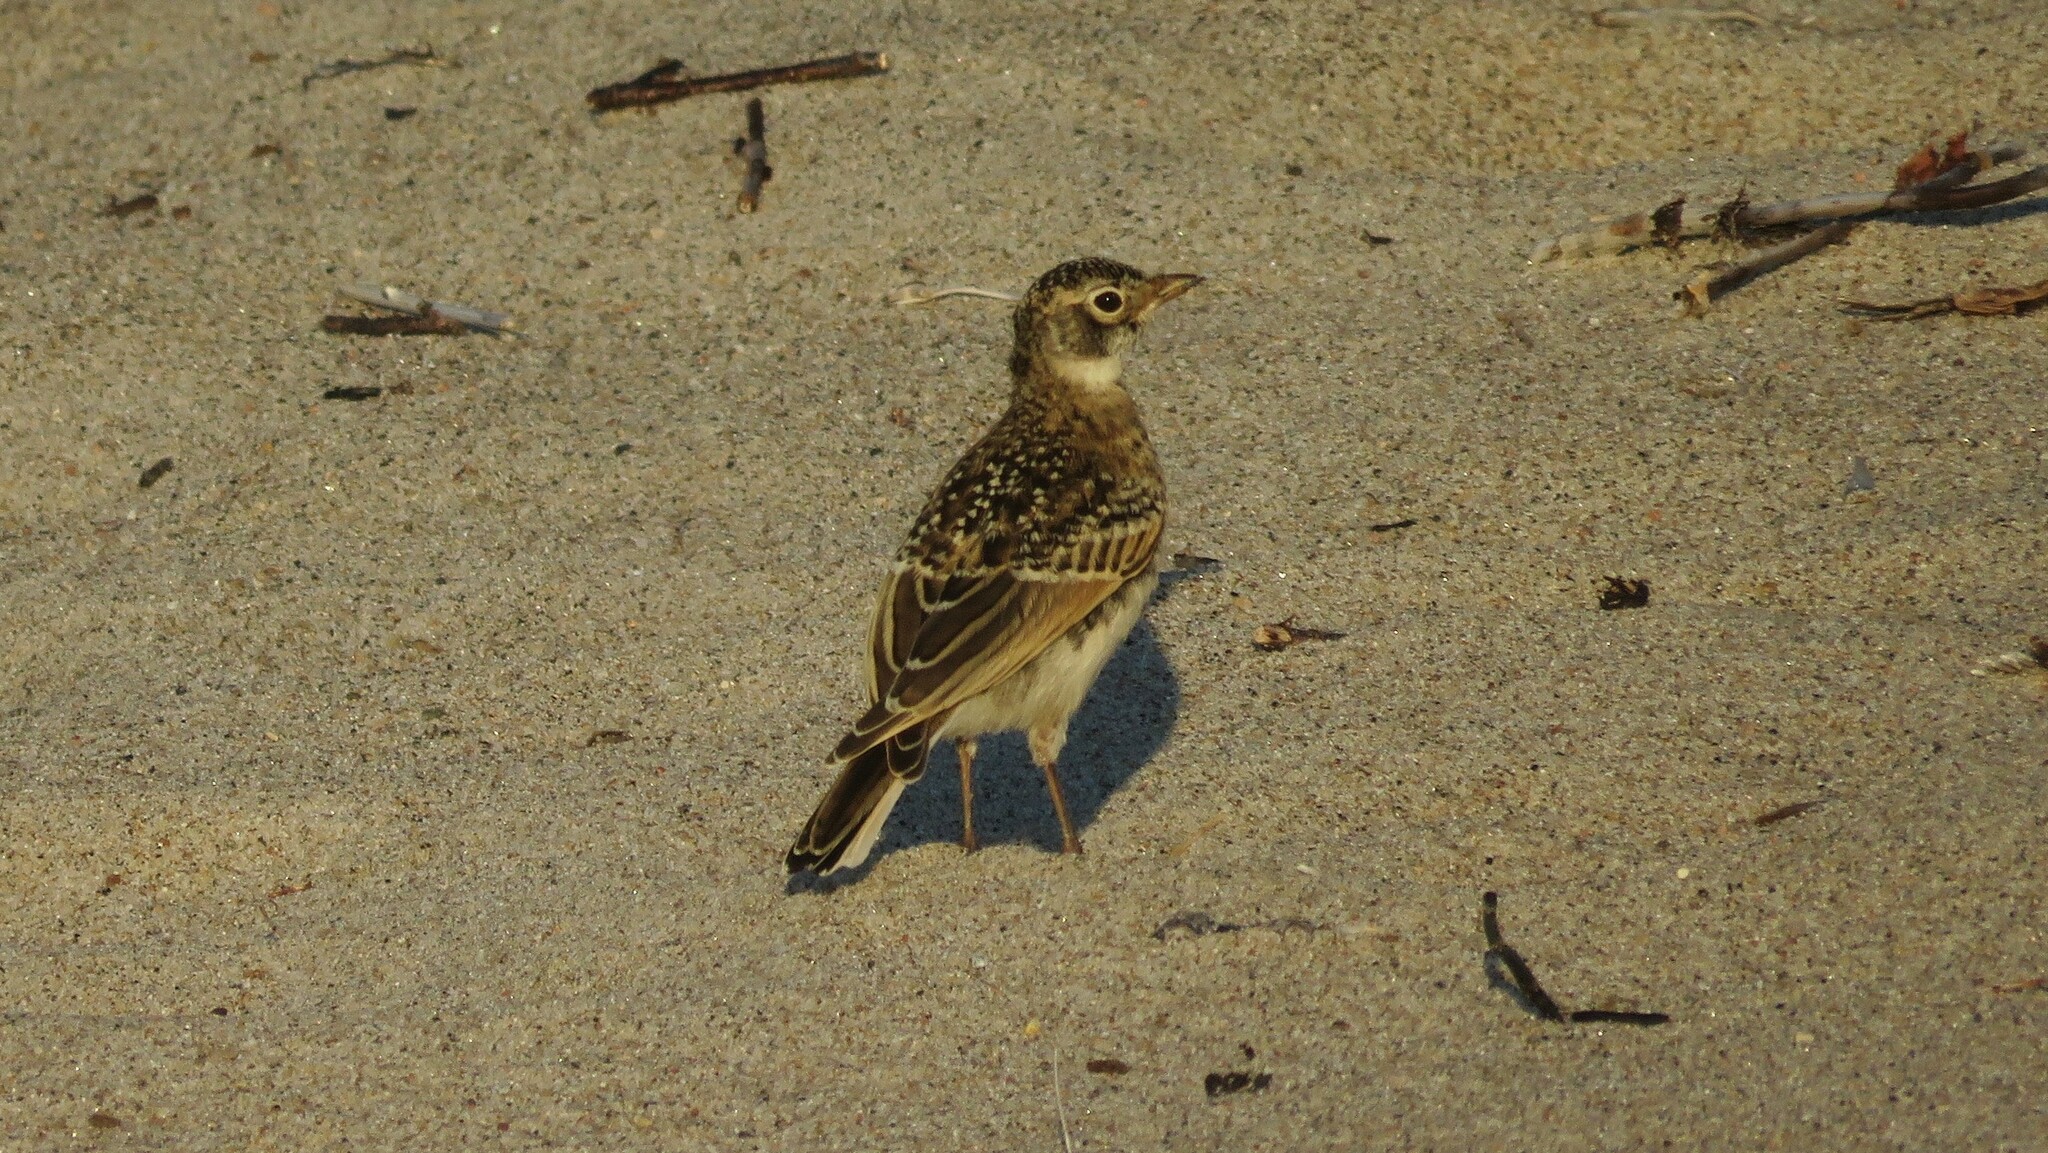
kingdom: Animalia
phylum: Chordata
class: Aves
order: Passeriformes
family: Alaudidae
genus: Eremophila
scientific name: Eremophila alpestris
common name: Horned lark
